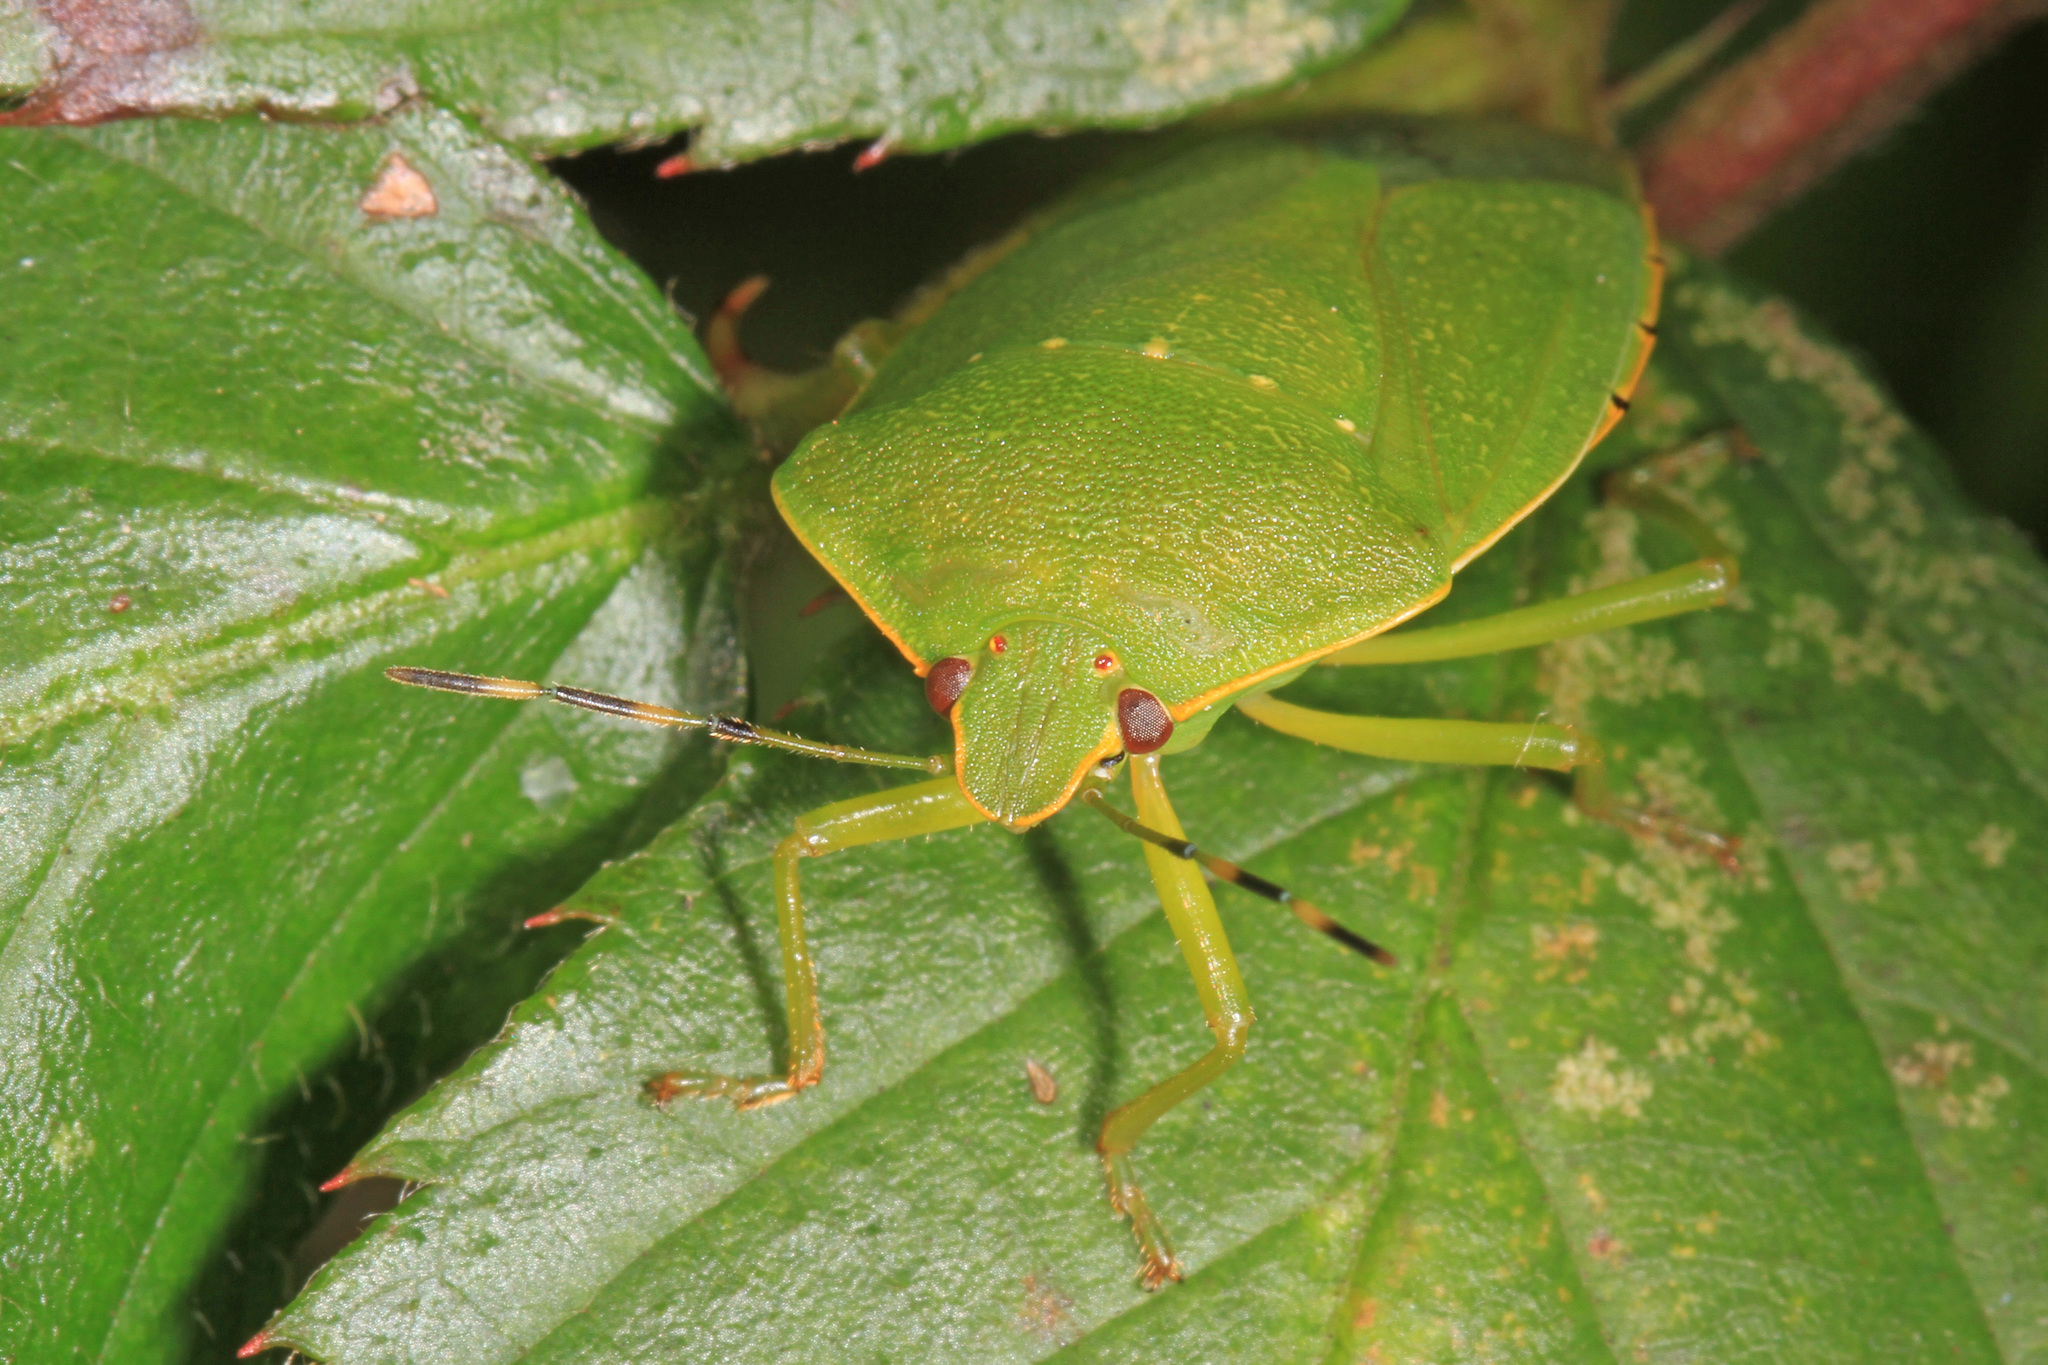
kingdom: Animalia
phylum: Arthropoda
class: Insecta
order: Hemiptera
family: Pentatomidae
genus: Chinavia
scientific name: Chinavia hilaris
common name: Green stink bug
